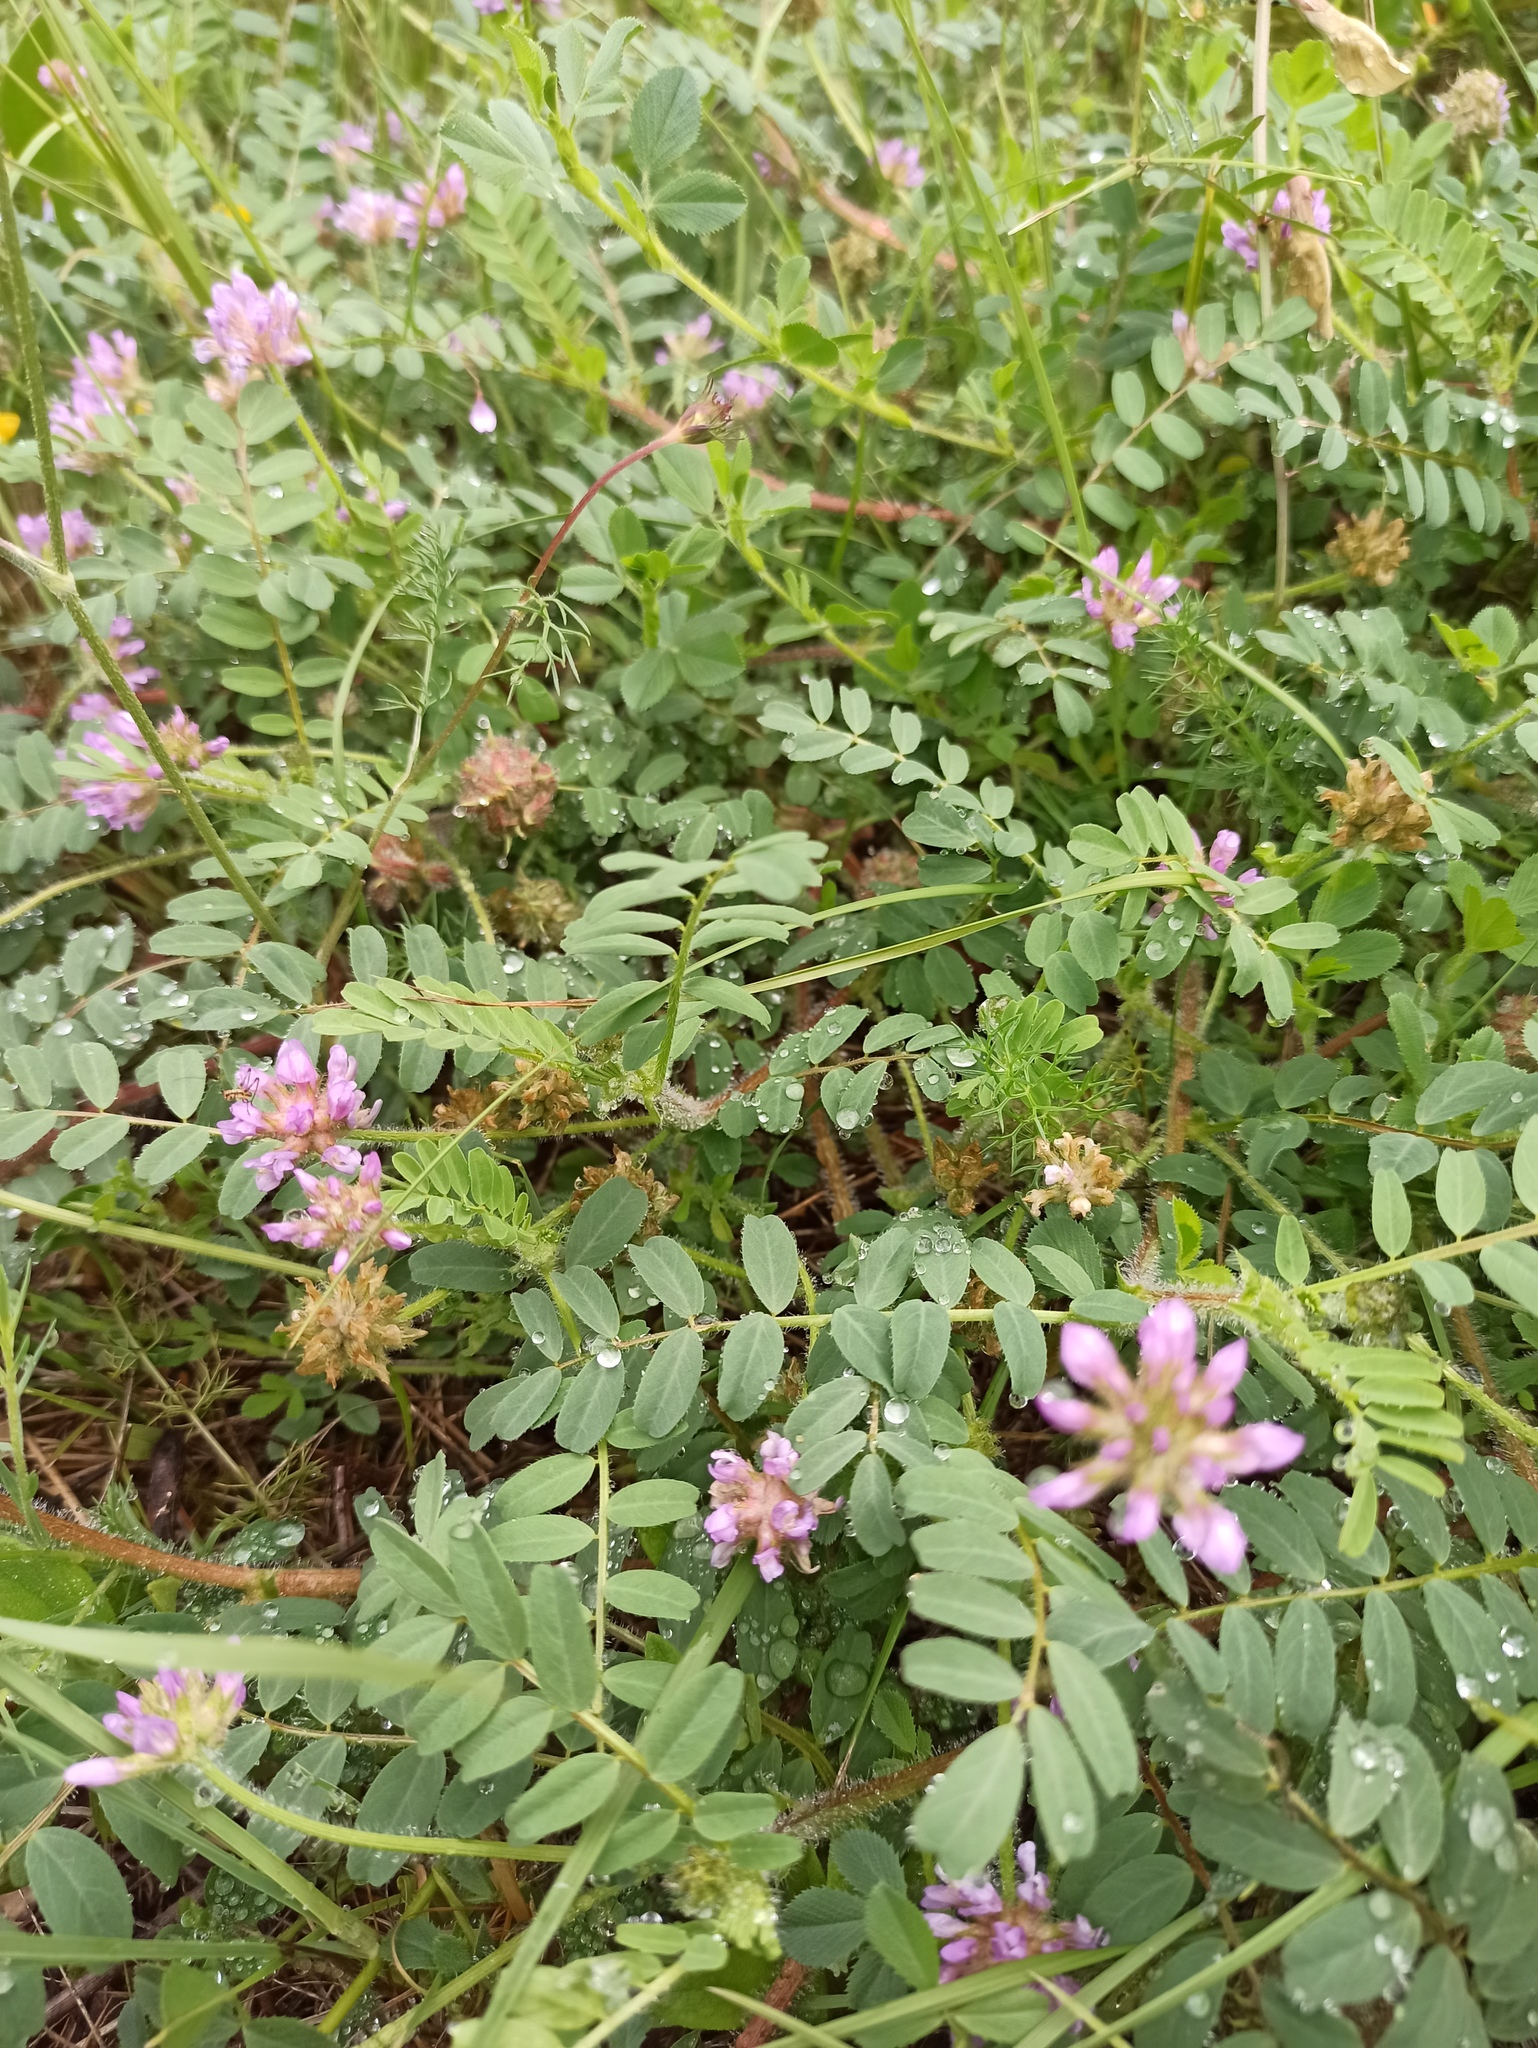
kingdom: Plantae
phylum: Tracheophyta
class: Magnoliopsida
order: Fabales
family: Fabaceae
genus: Astragalus
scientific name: Astragalus echinatus
